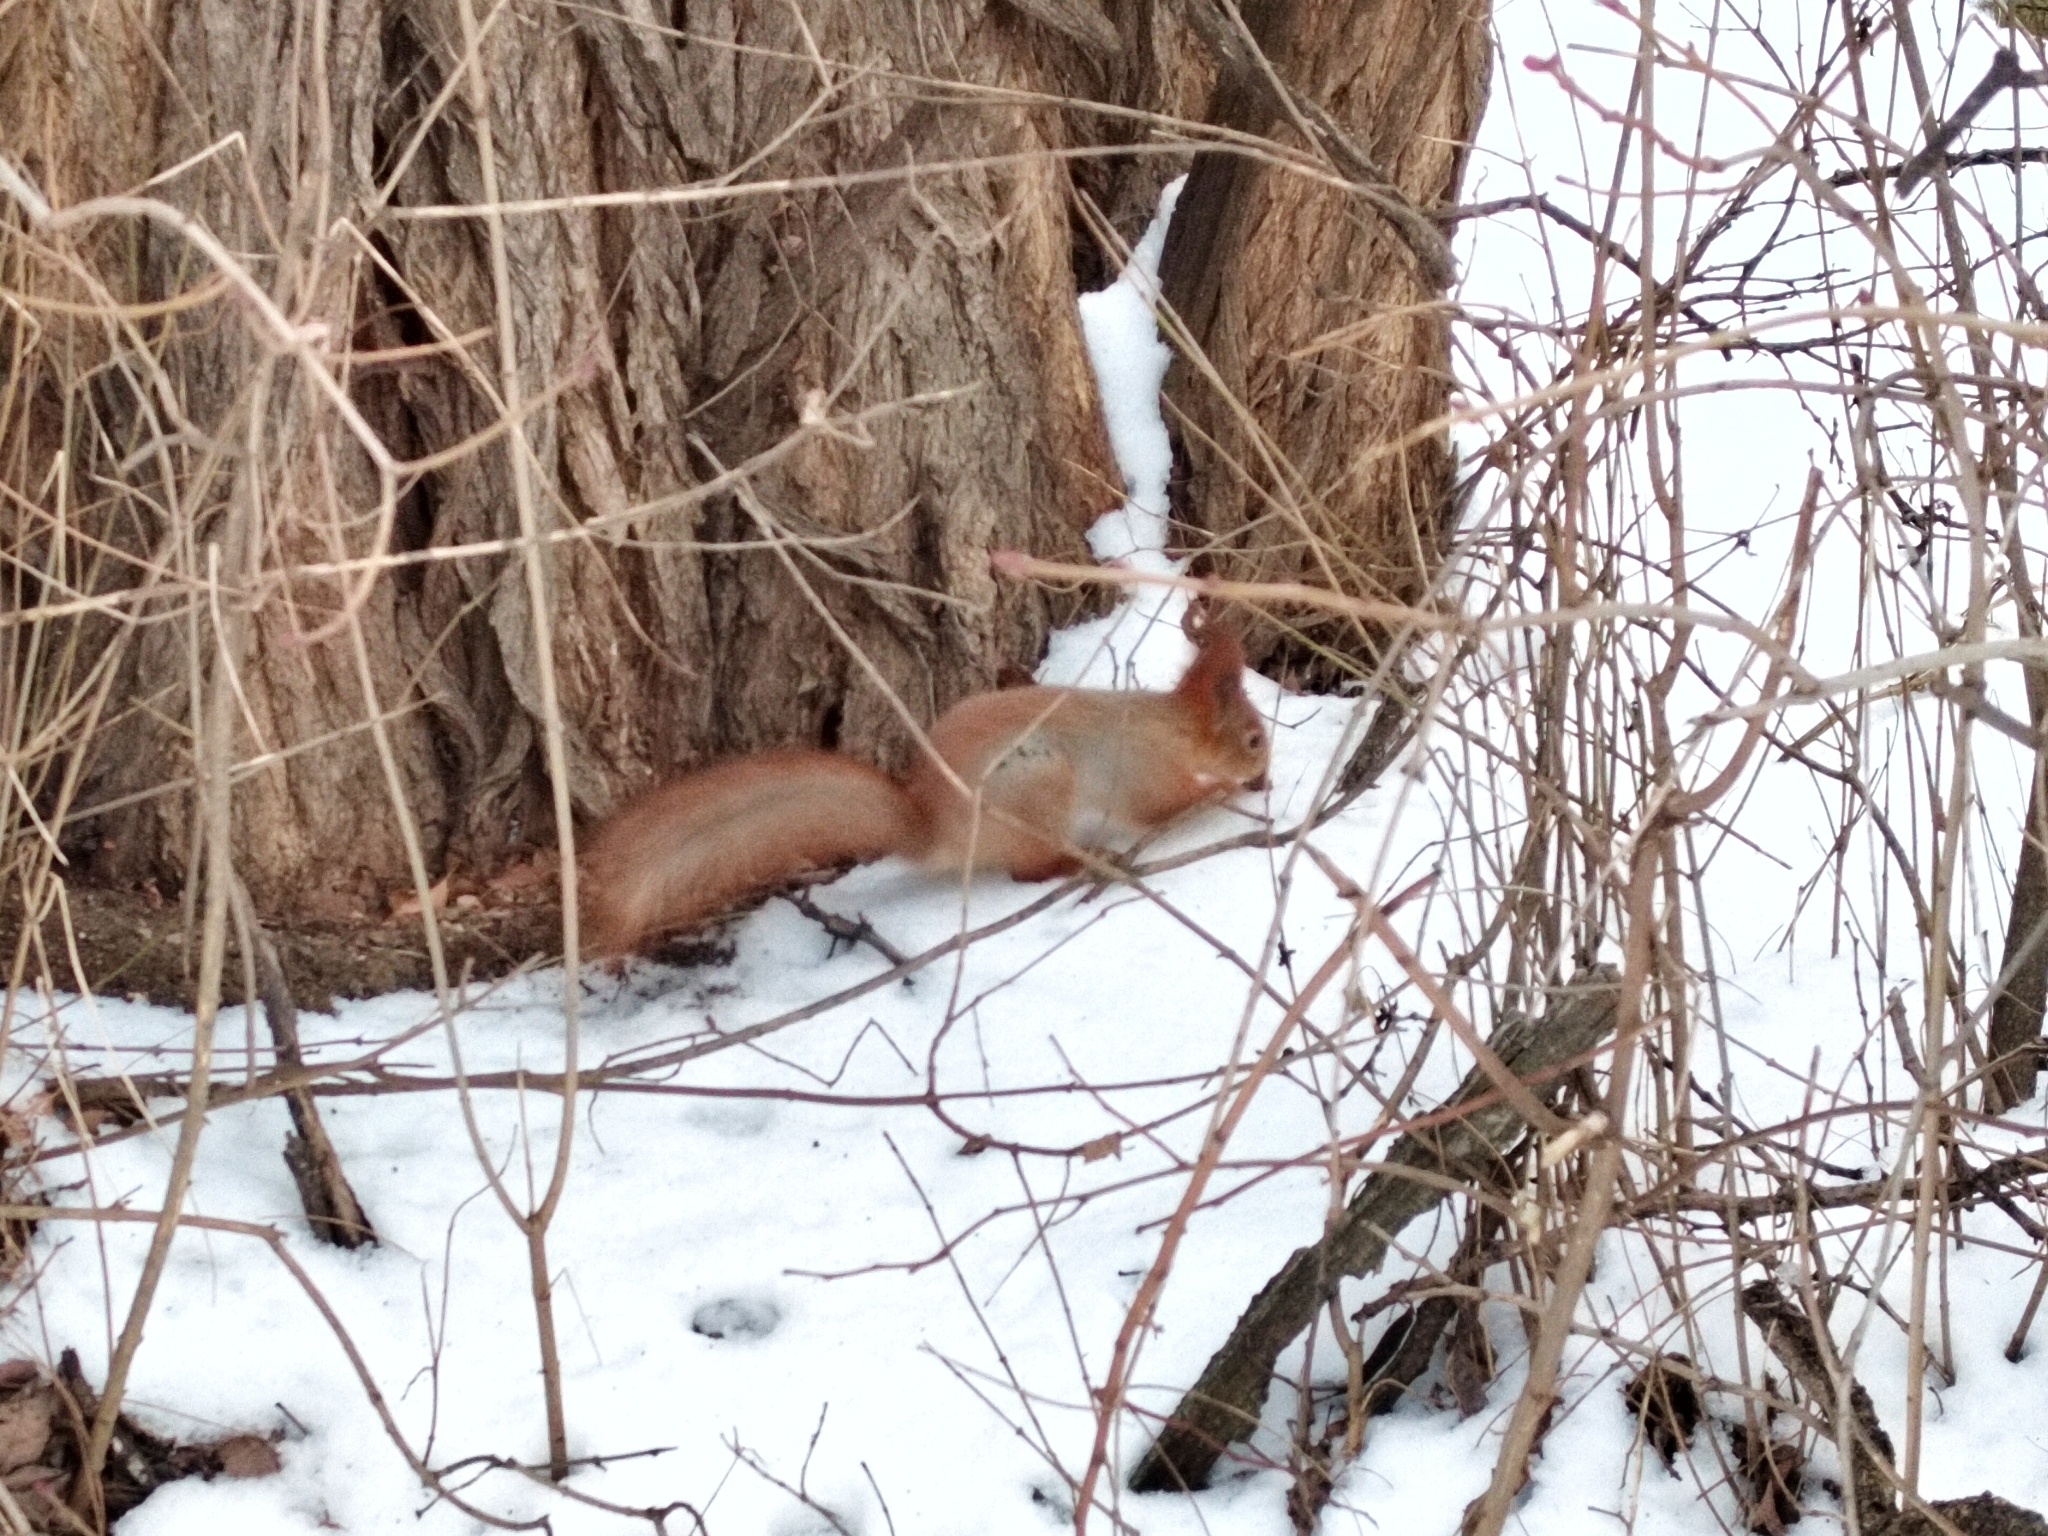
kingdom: Animalia
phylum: Chordata
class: Mammalia
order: Rodentia
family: Sciuridae
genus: Sciurus
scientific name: Sciurus vulgaris
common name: Eurasian red squirrel
